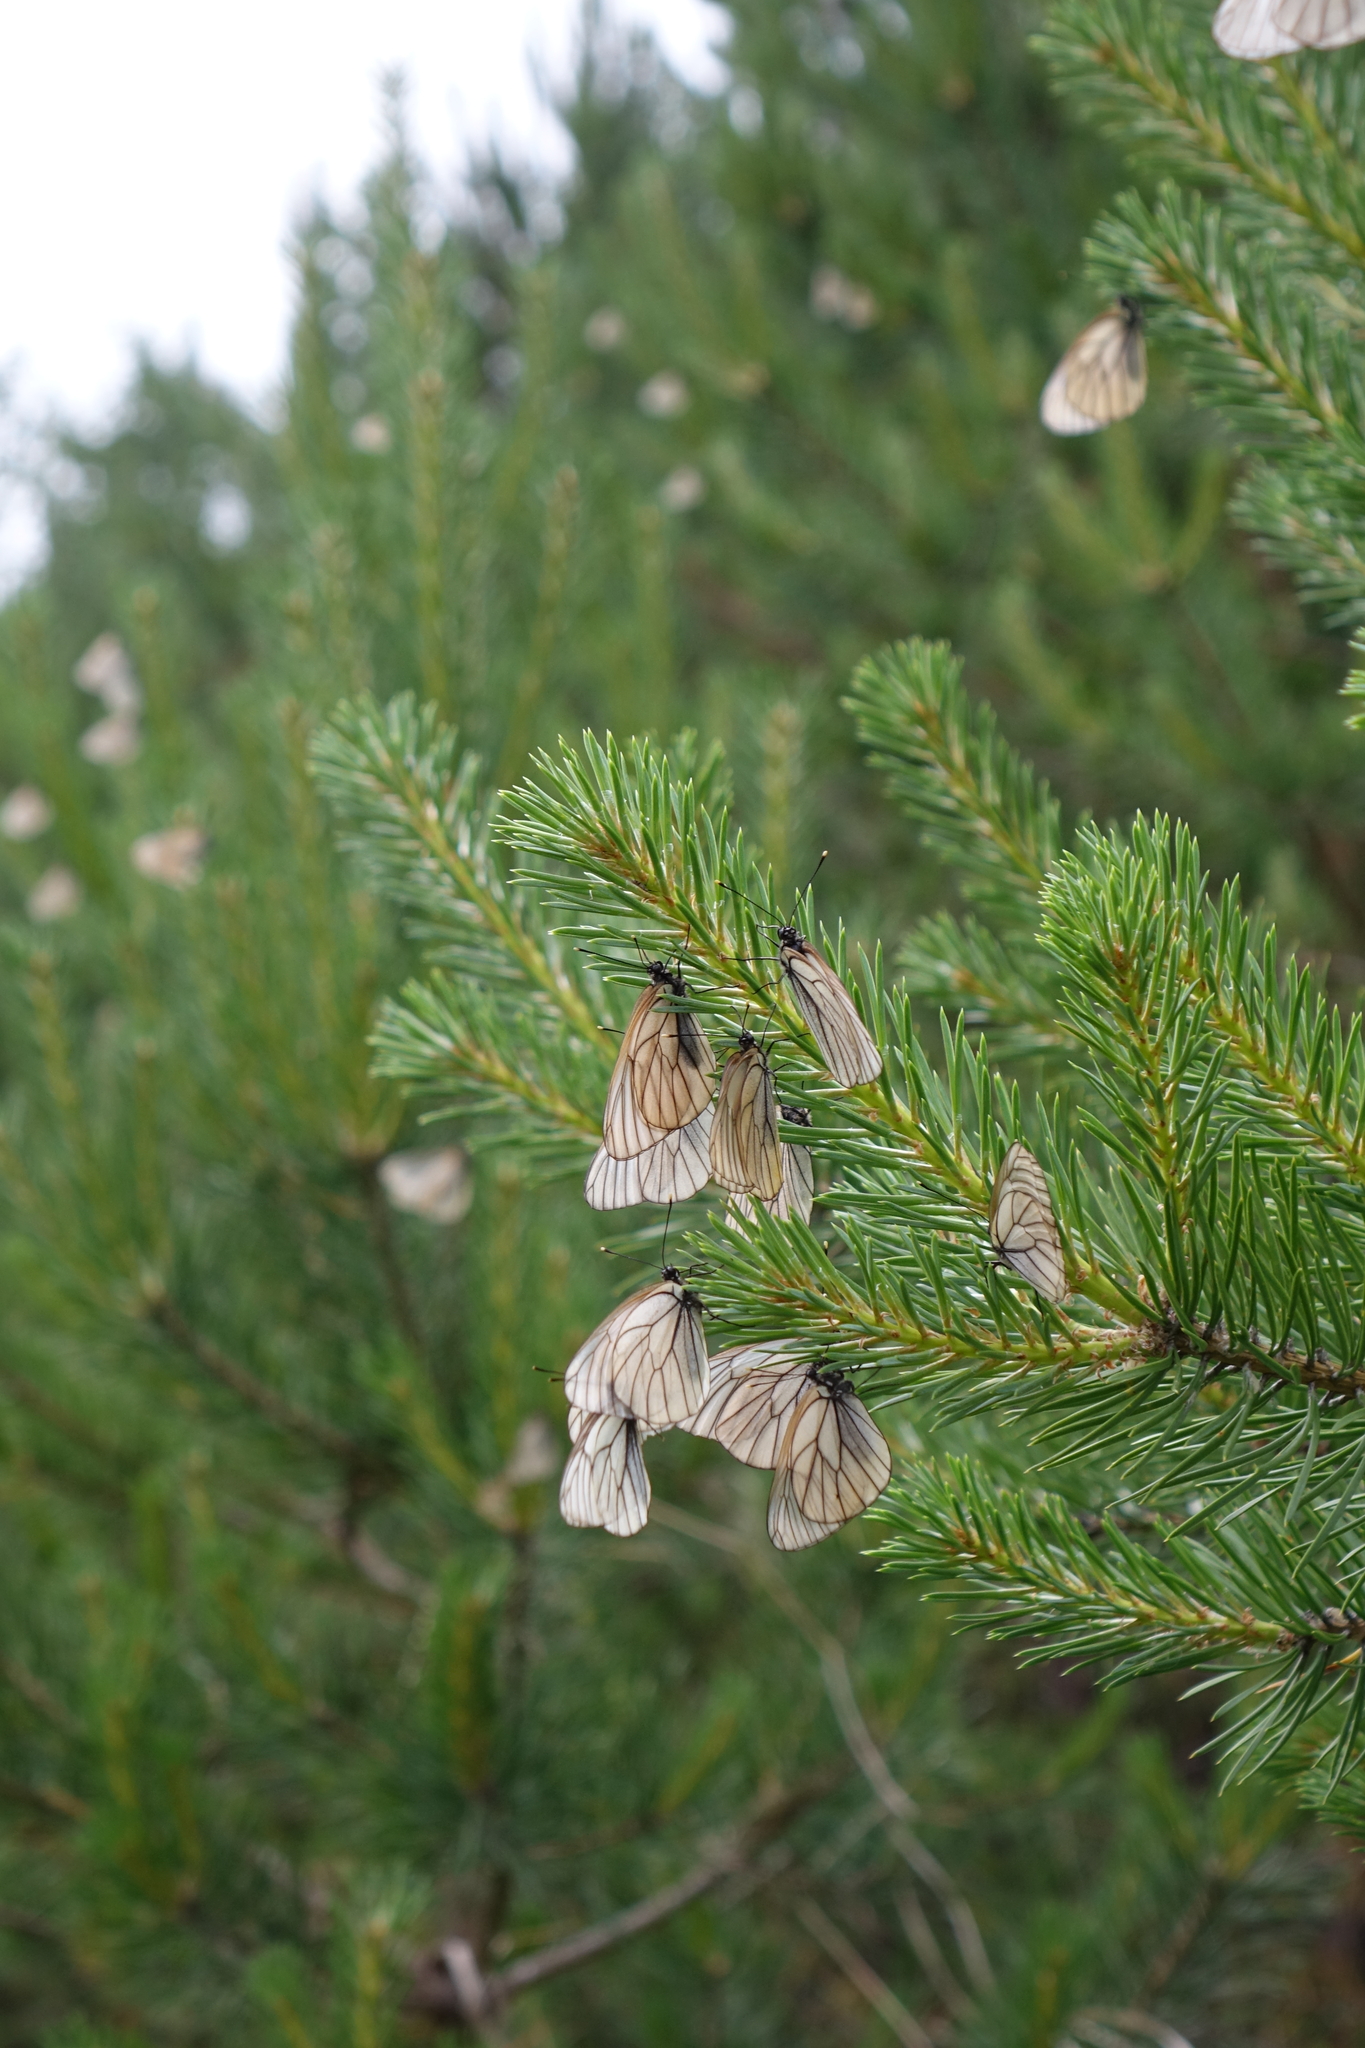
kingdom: Plantae
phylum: Tracheophyta
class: Pinopsida
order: Pinales
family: Pinaceae
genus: Pinus
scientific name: Pinus sylvestris
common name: Scots pine
